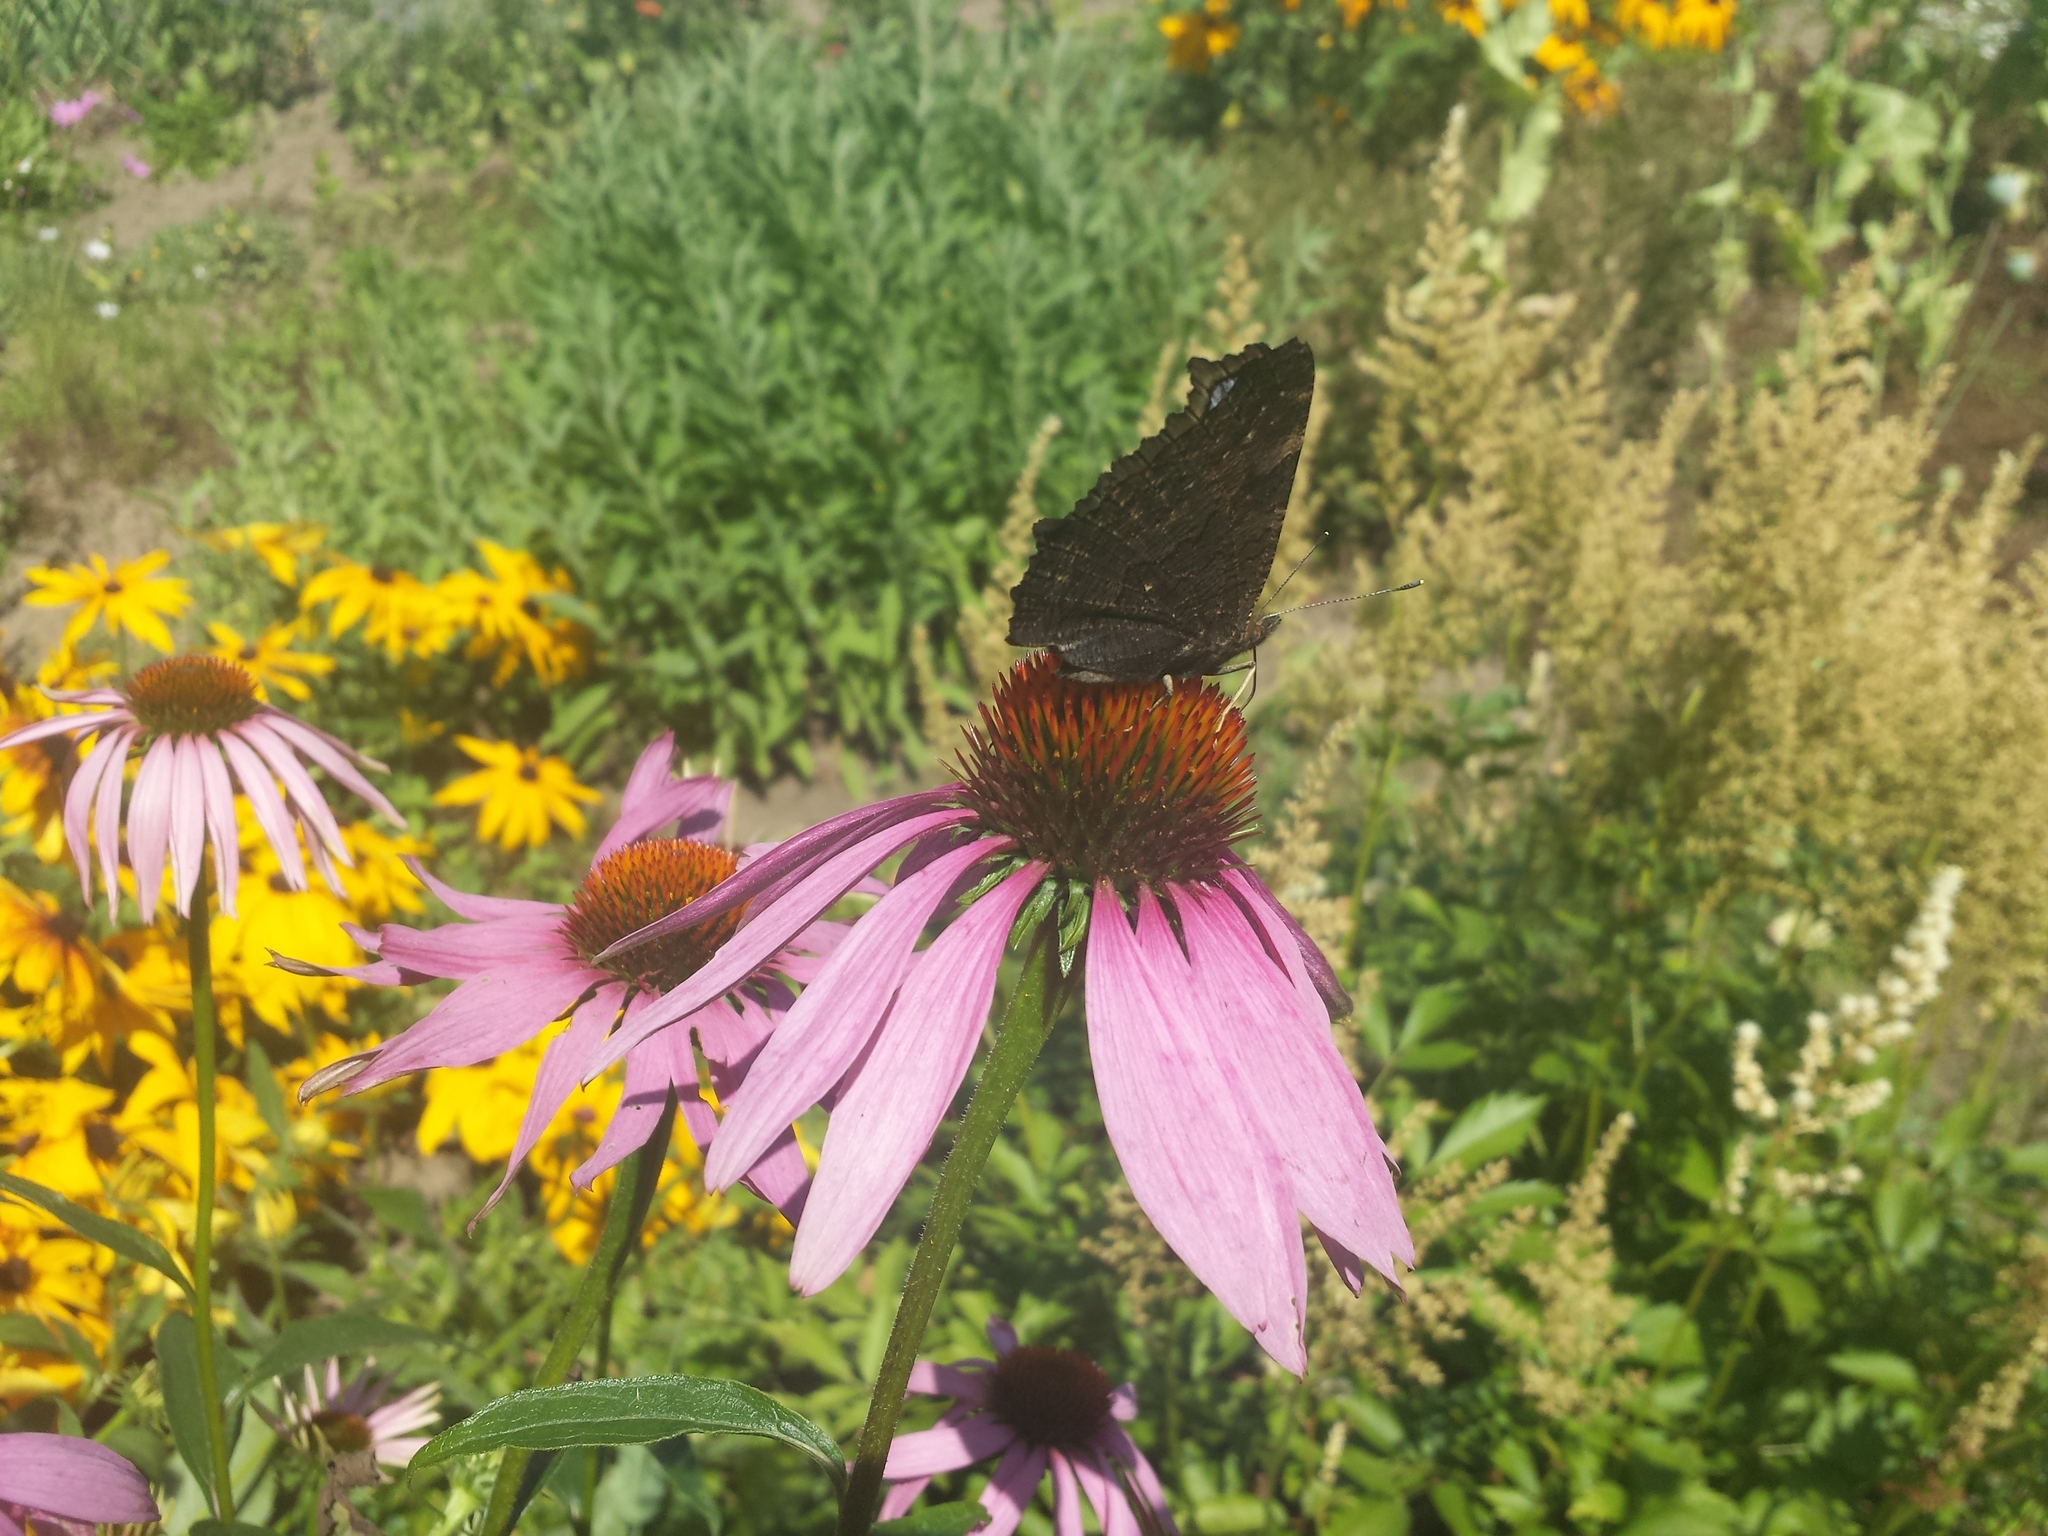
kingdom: Animalia
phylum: Arthropoda
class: Insecta
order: Lepidoptera
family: Nymphalidae
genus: Aglais
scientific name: Aglais io
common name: Peacock
